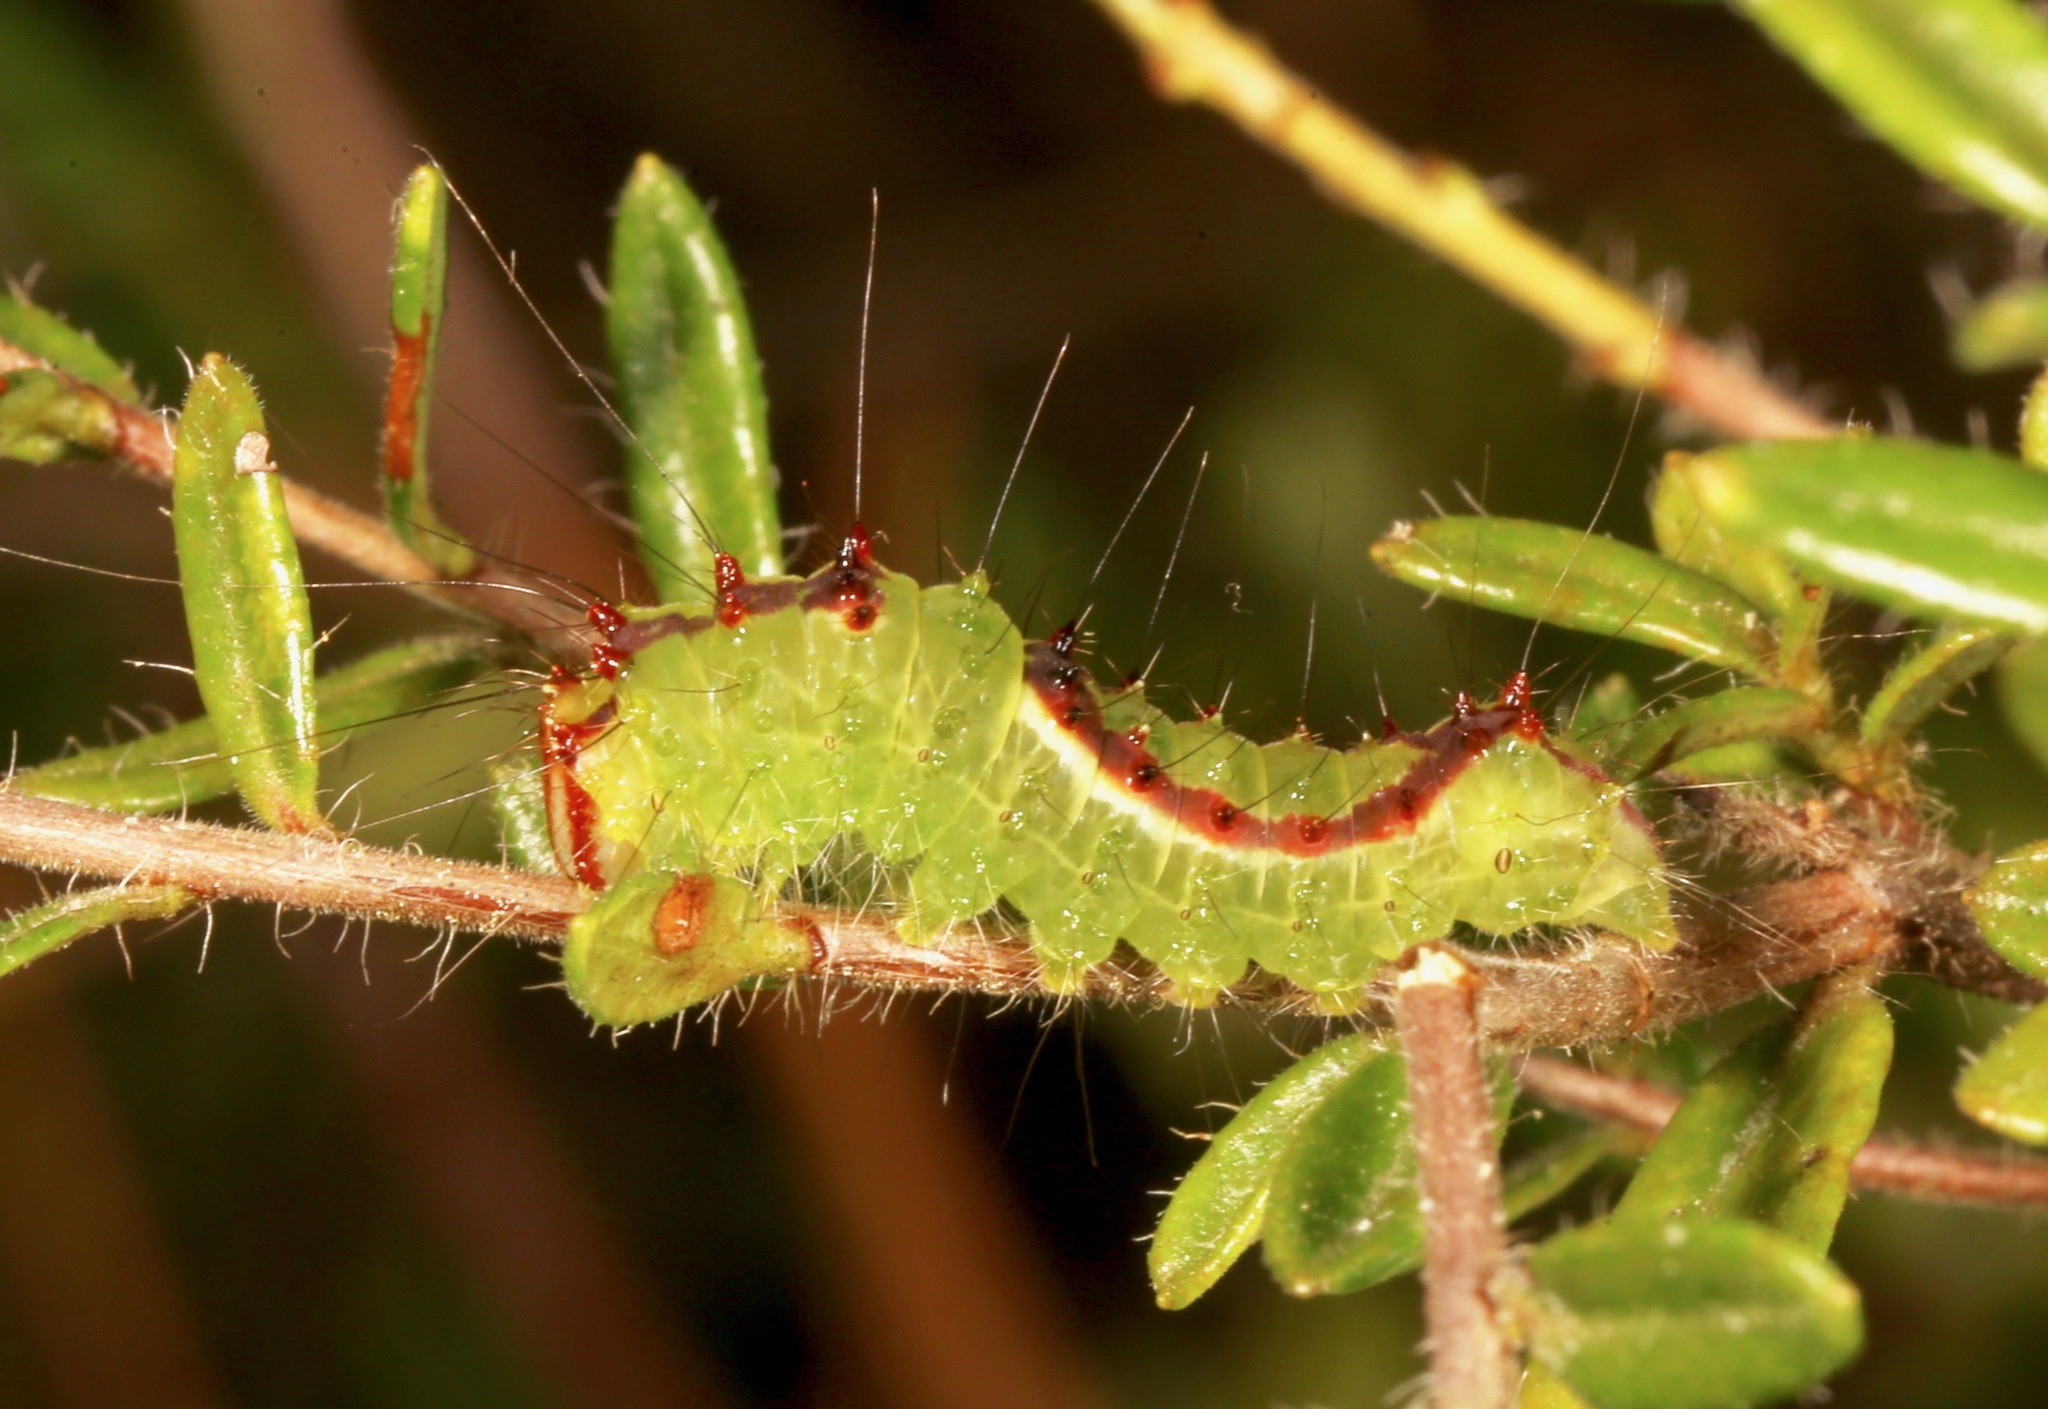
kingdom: Animalia
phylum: Arthropoda
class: Insecta
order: Lepidoptera
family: Noctuidae
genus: Acronicta
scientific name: Acronicta tritona
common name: Triton dagger
